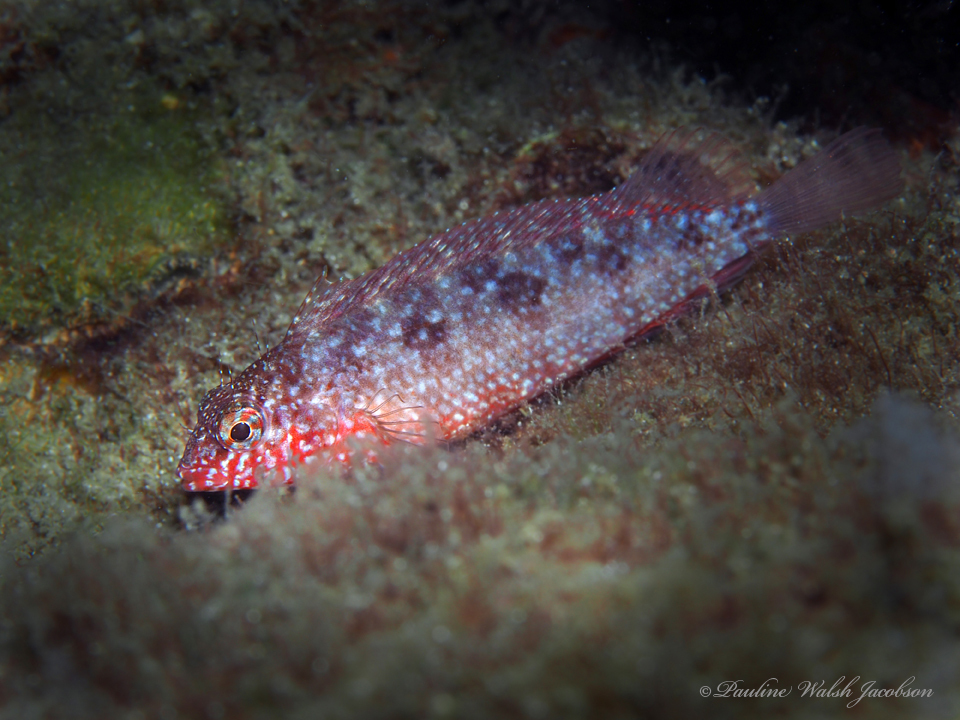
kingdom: Animalia
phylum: Chordata
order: Perciformes
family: Labrisomidae
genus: Malacoctenus
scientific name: Malacoctenus macropus
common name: Rosy blenny
